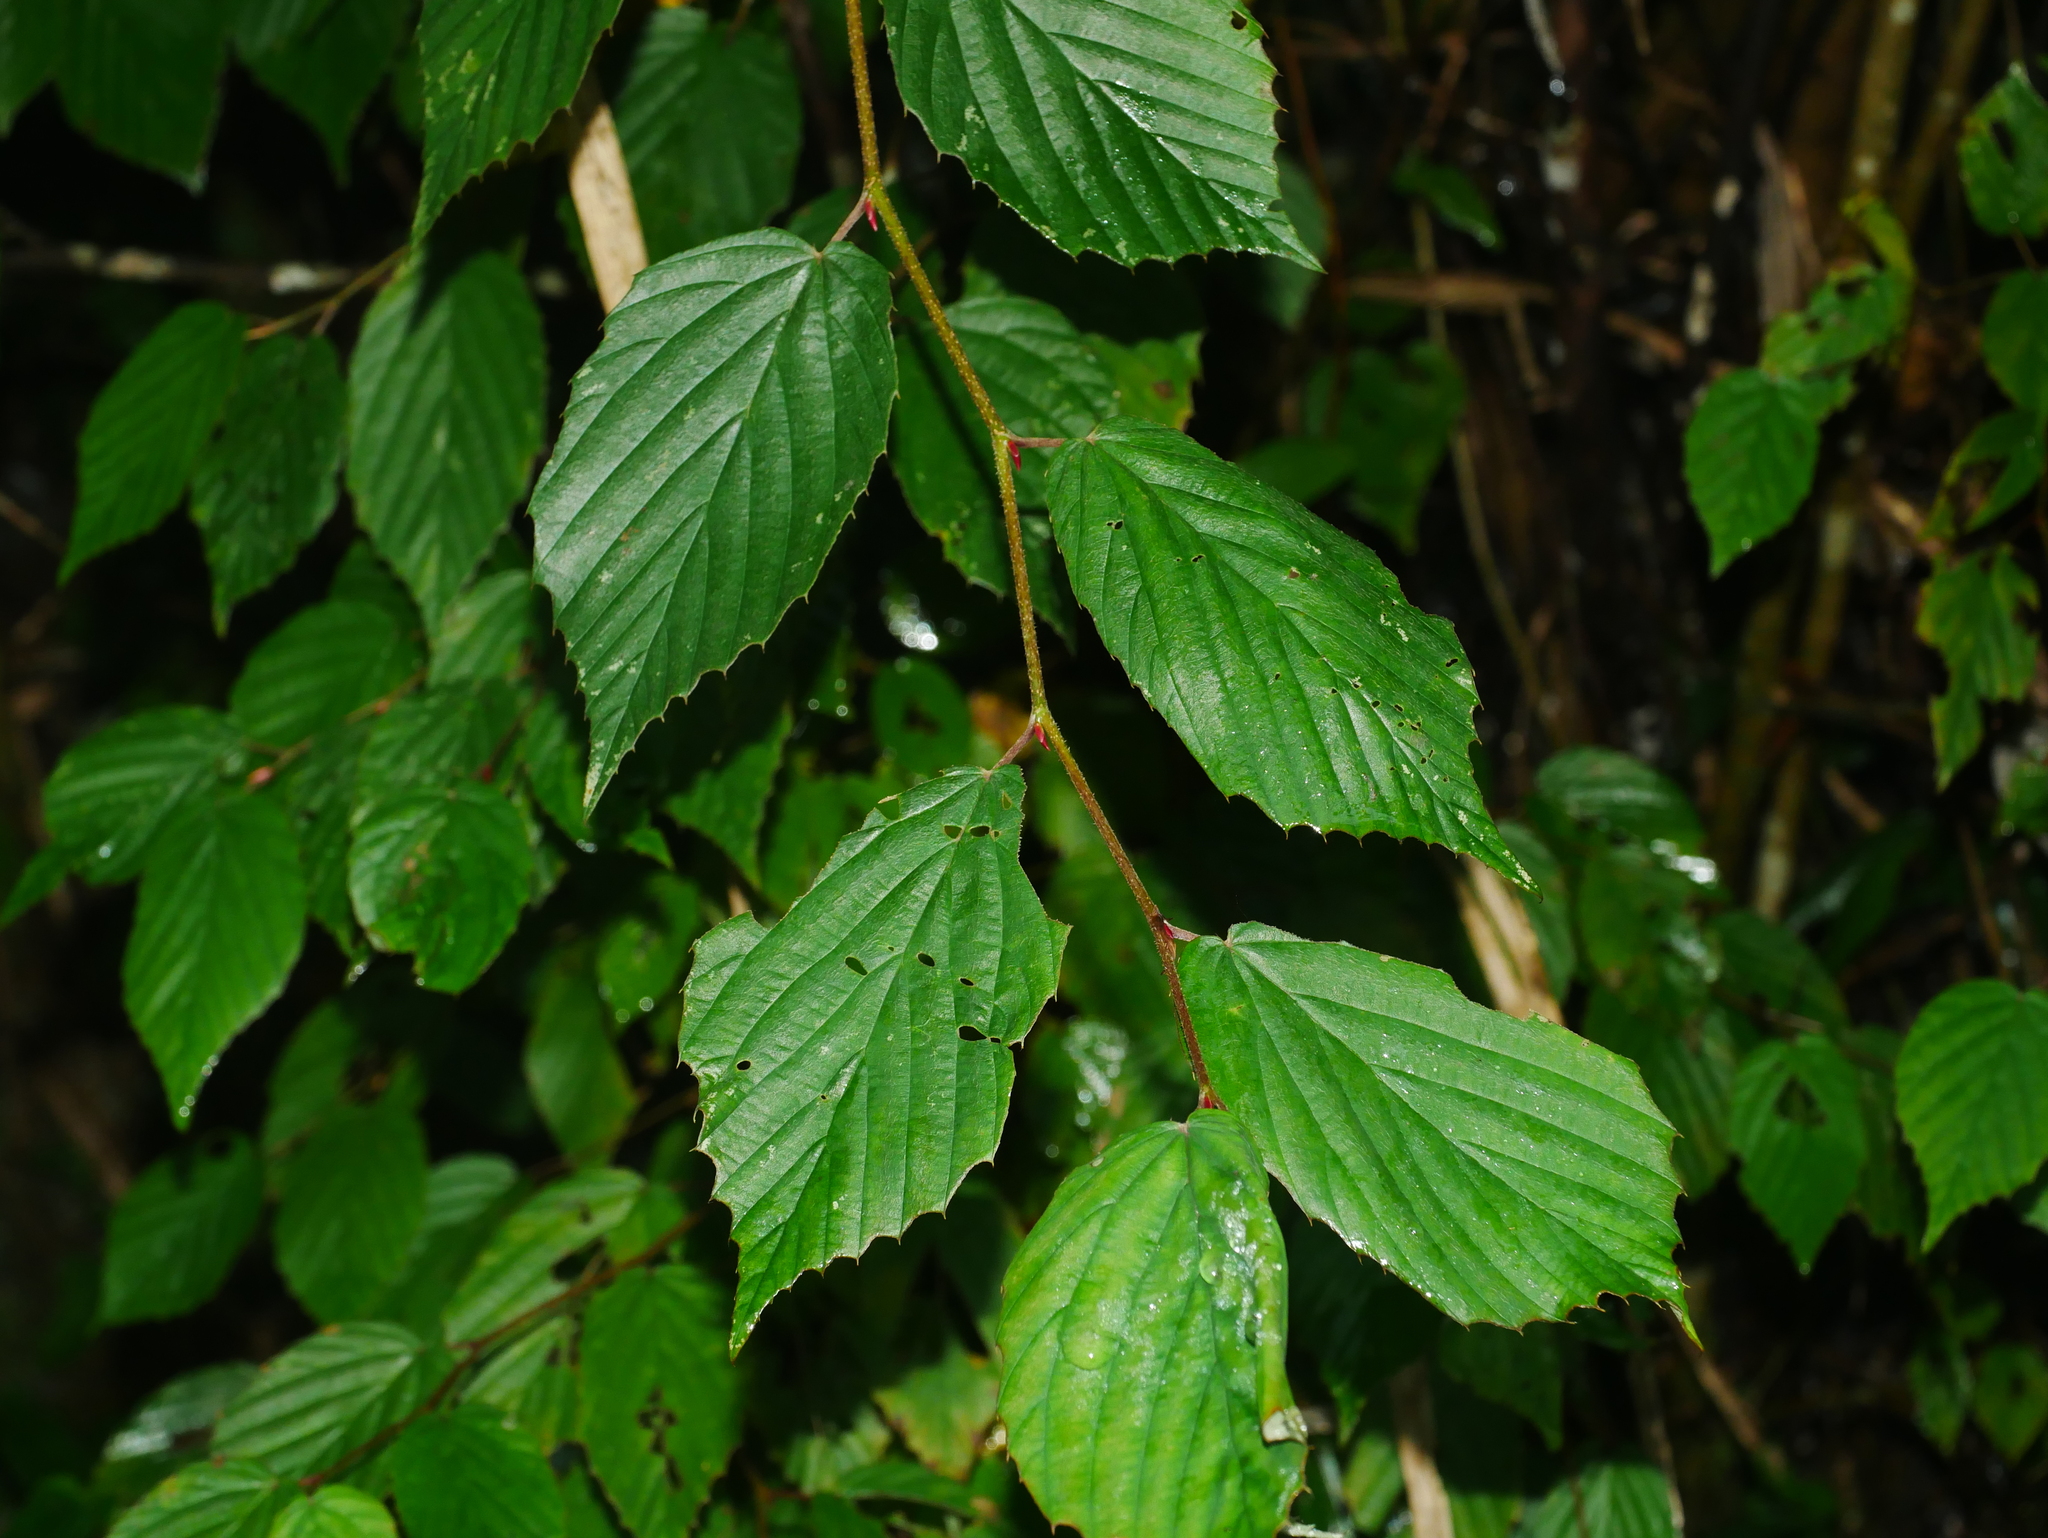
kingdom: Plantae
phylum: Tracheophyta
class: Magnoliopsida
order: Saxifragales
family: Hamamelidaceae
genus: Corylopsis
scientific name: Corylopsis pauciflora
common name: Buttercup winter-hazel
